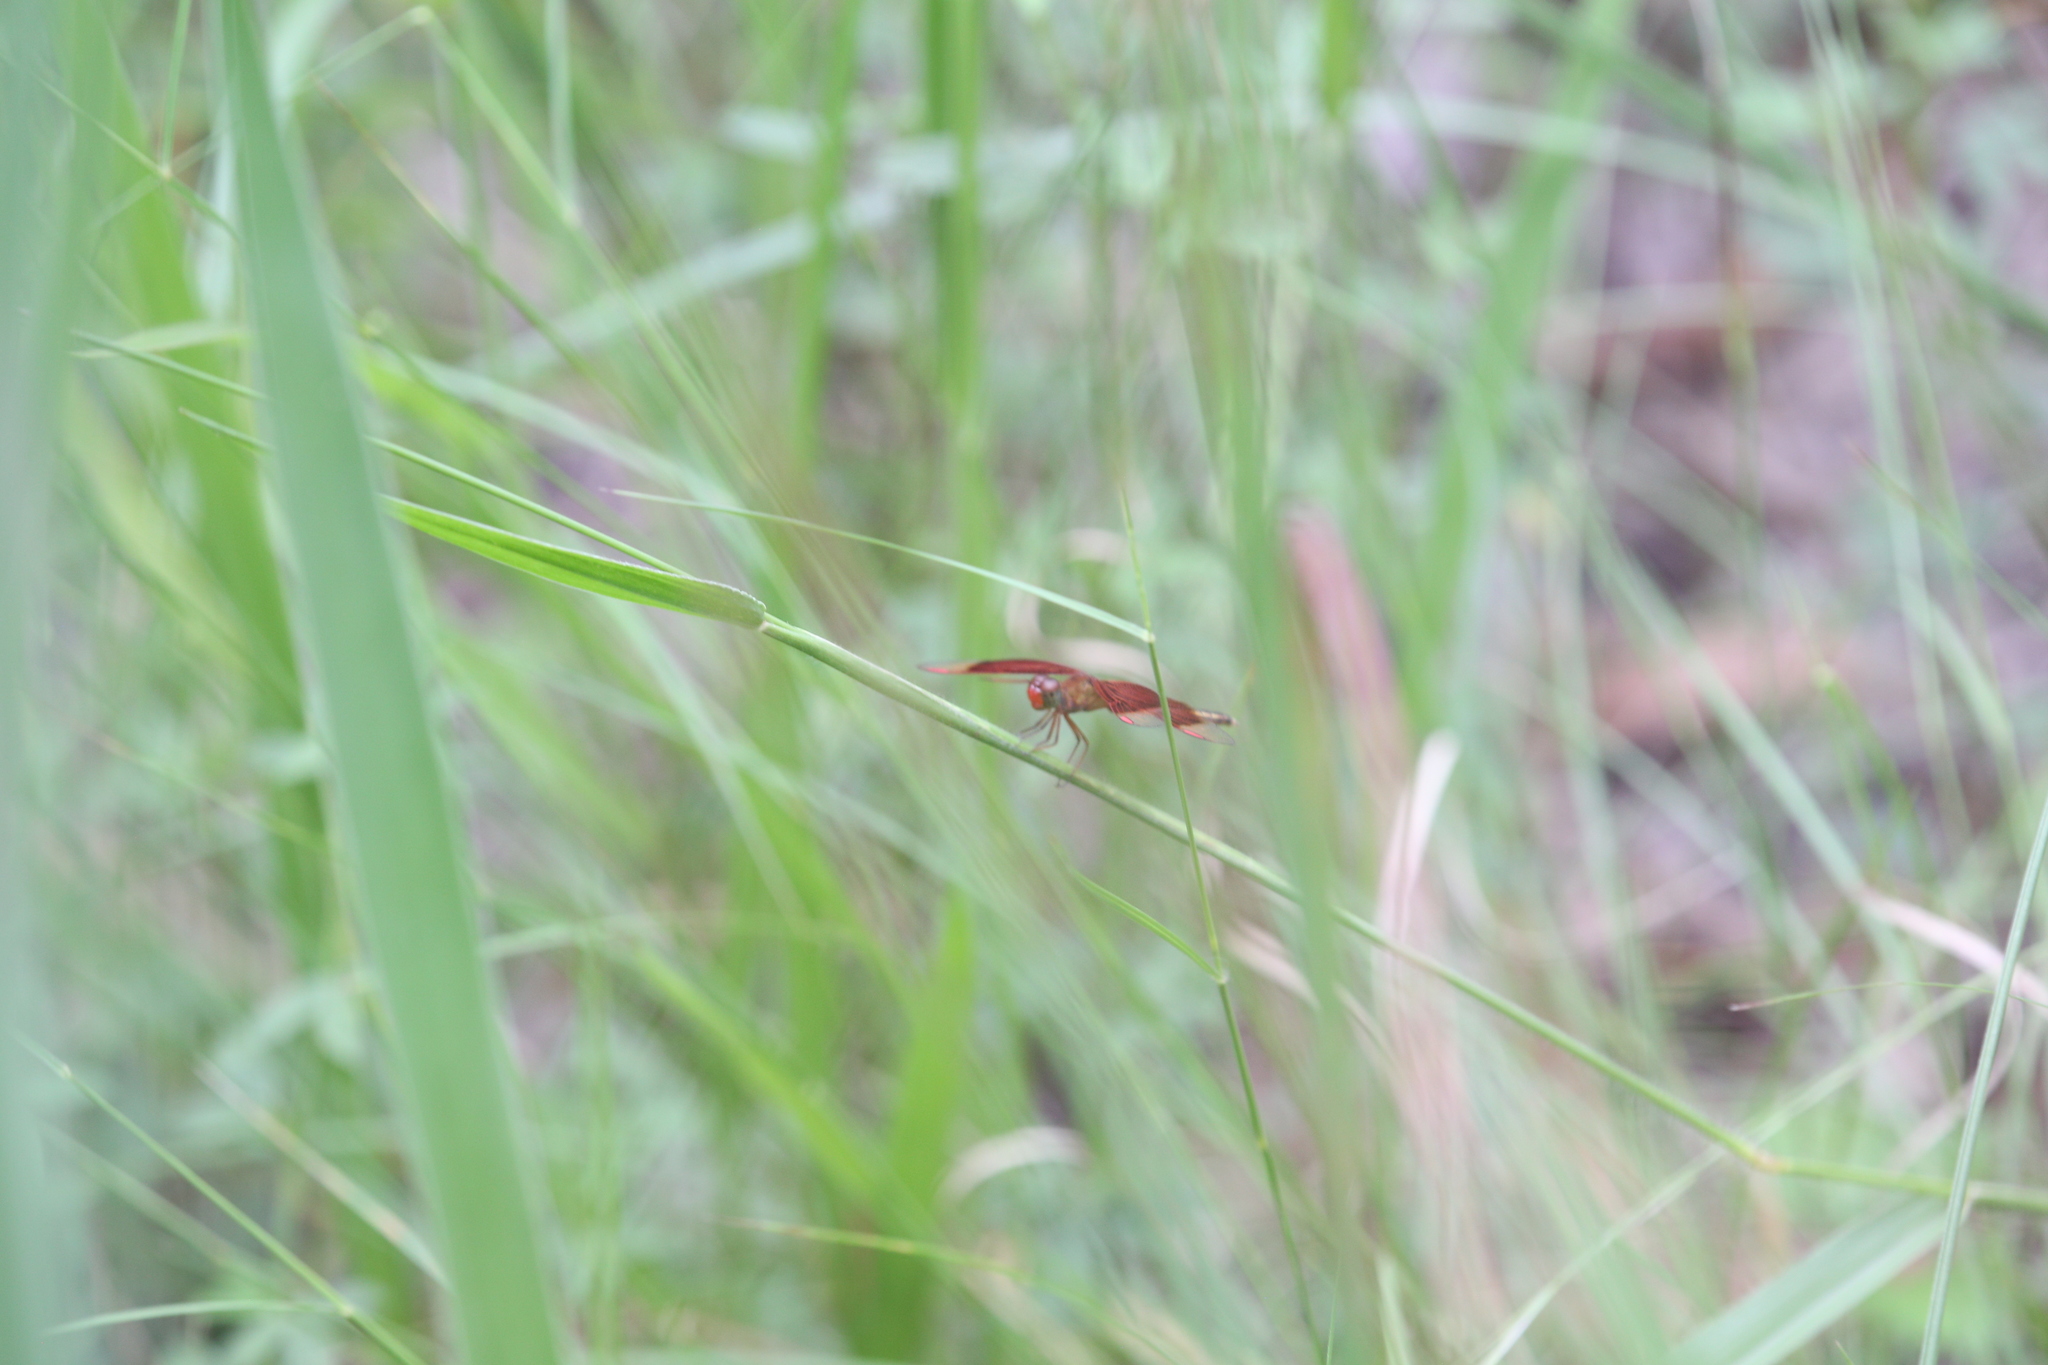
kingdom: Animalia
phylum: Arthropoda
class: Insecta
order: Odonata
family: Libellulidae
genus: Neurothemis
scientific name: Neurothemis stigmatizans
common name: Painted grasshawk
